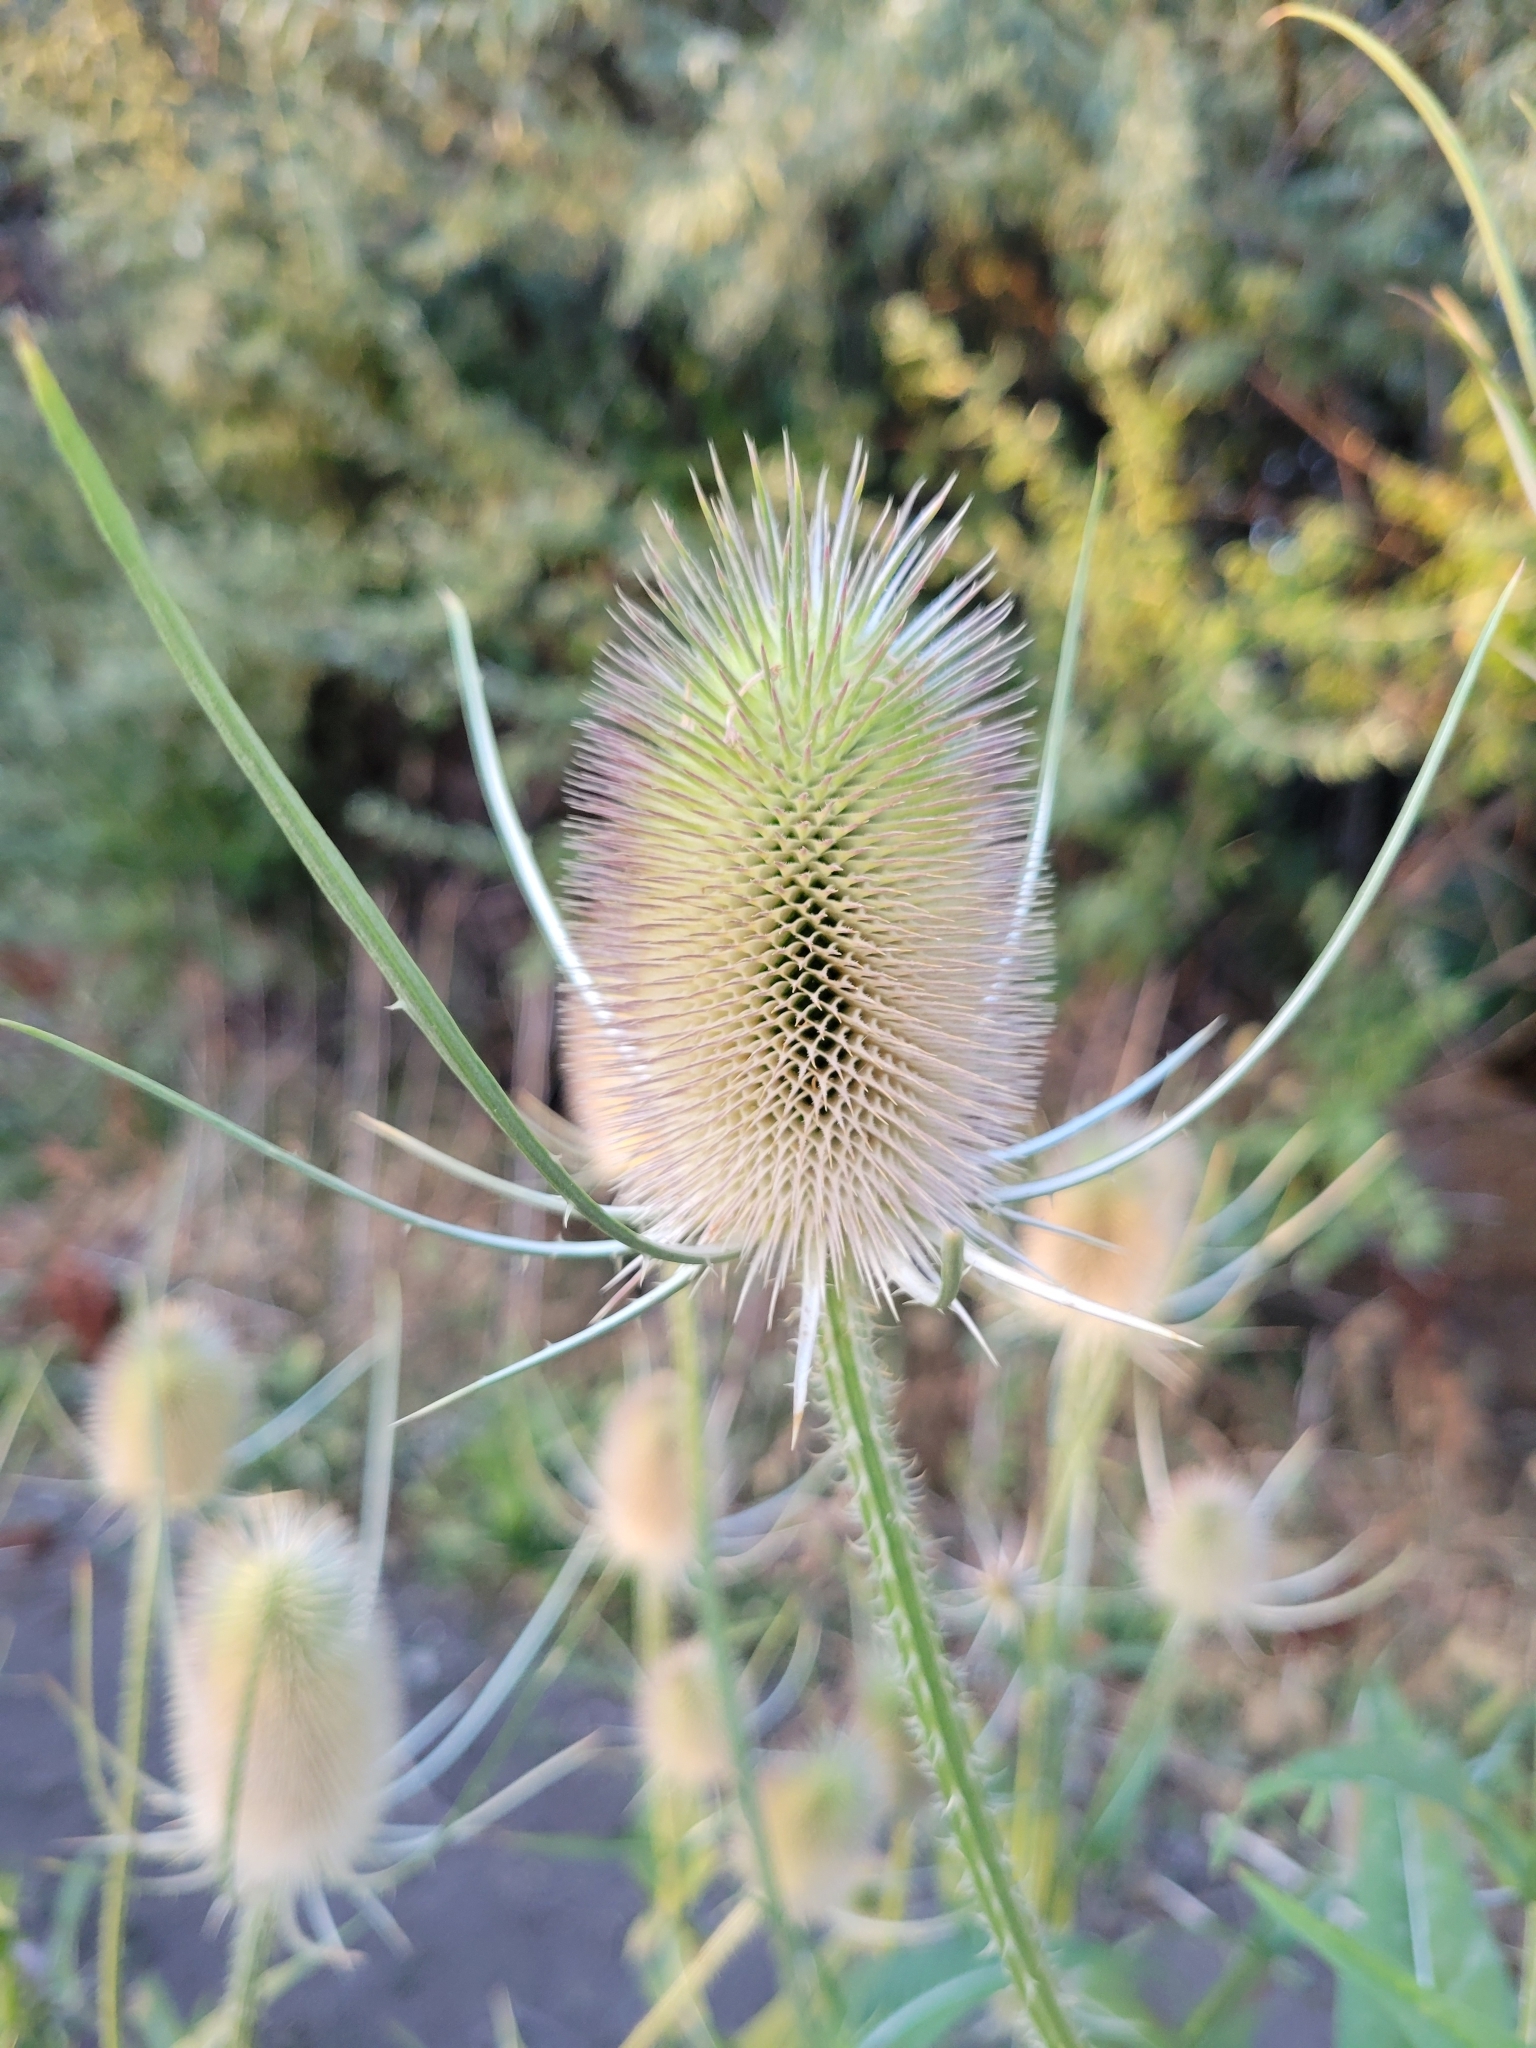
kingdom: Plantae
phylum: Tracheophyta
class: Magnoliopsida
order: Dipsacales
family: Caprifoliaceae
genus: Dipsacus
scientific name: Dipsacus fullonum
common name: Teasel
